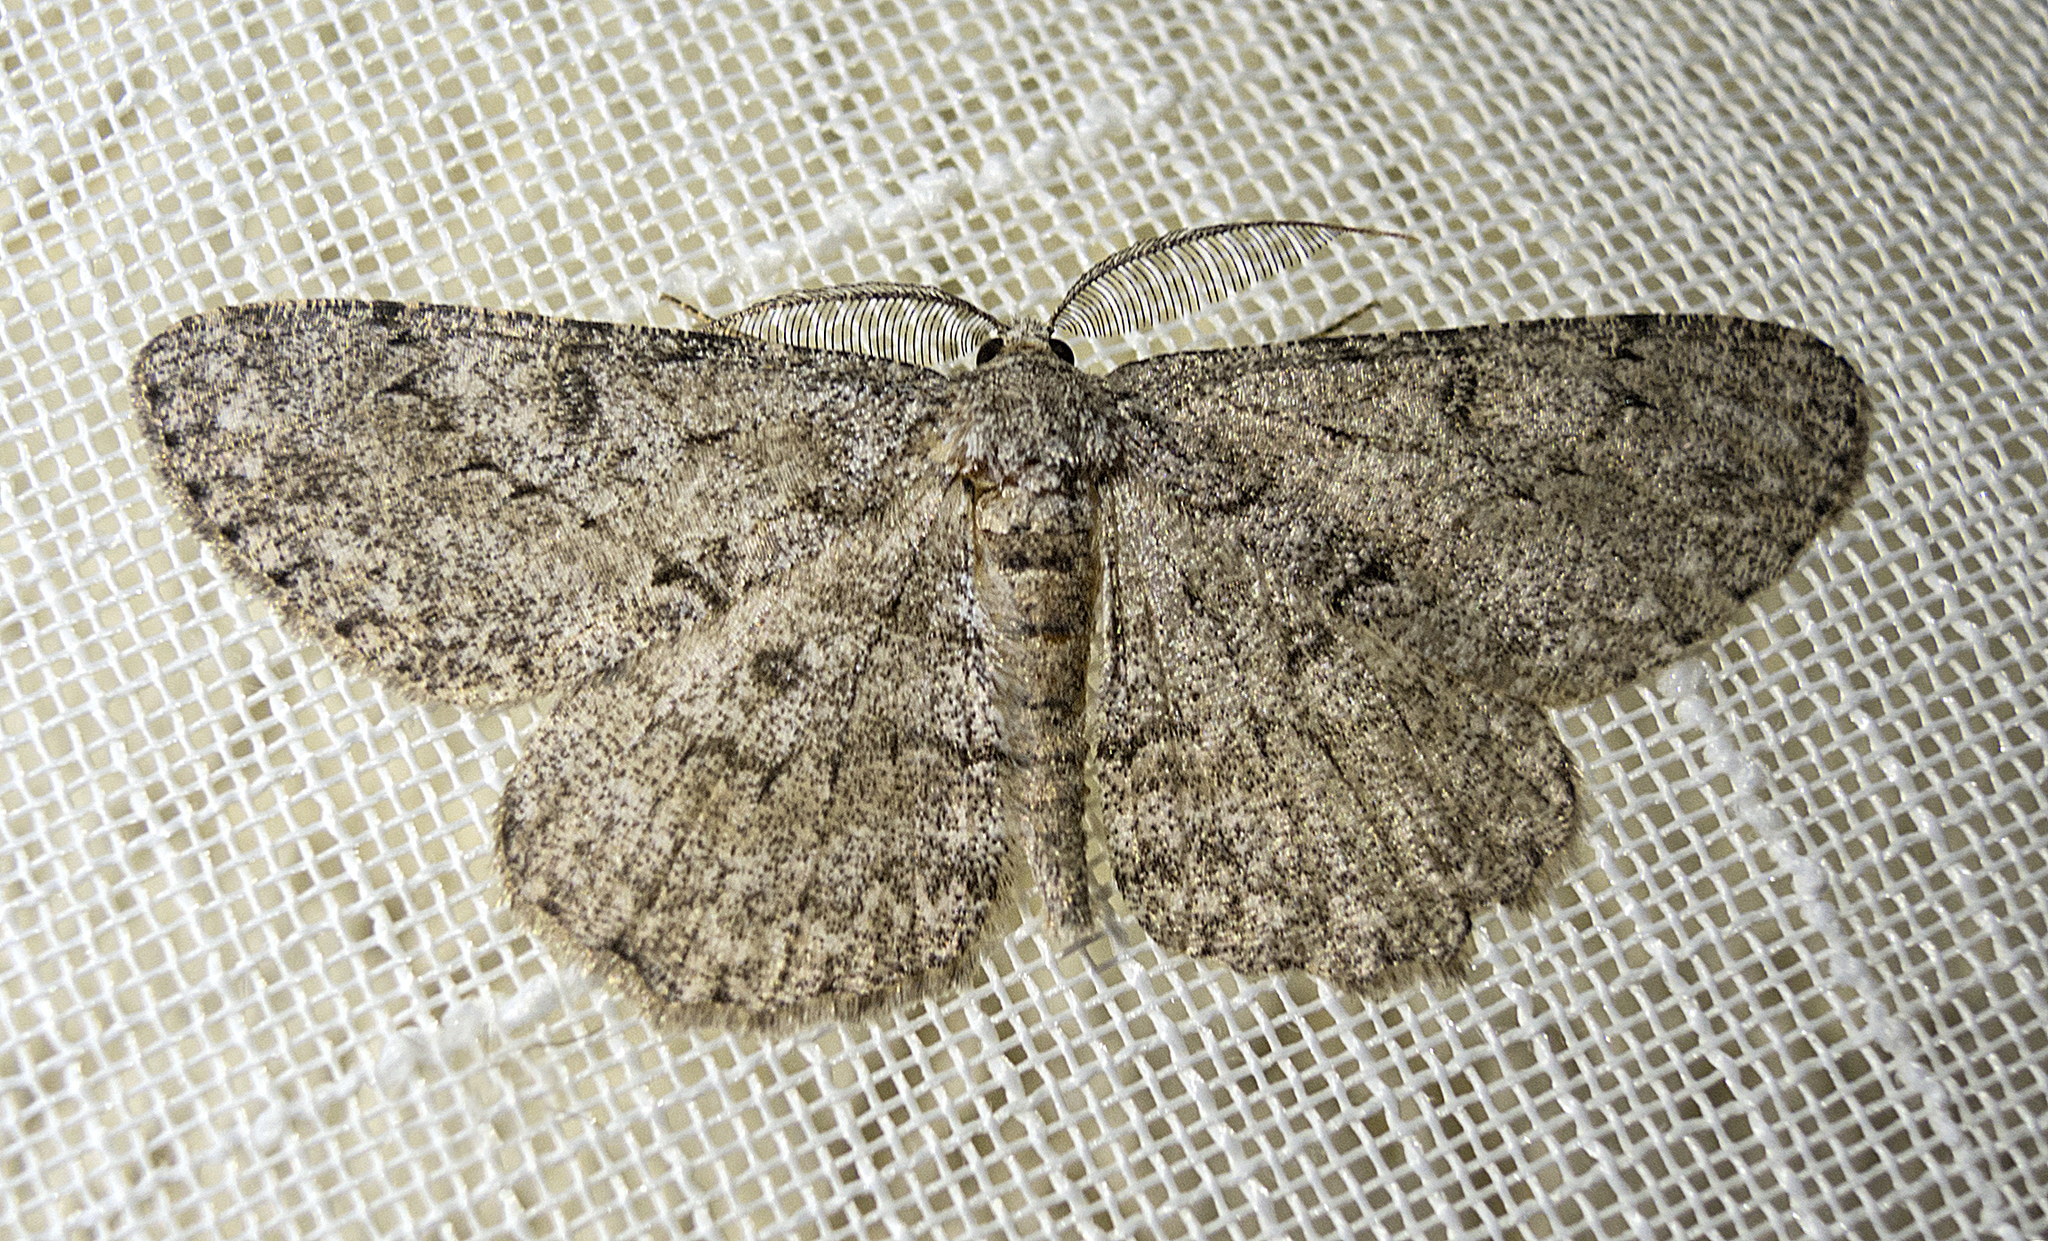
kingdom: Animalia
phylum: Arthropoda
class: Insecta
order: Lepidoptera
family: Geometridae
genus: Hypomecis
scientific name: Hypomecis punctinalis
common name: Pale oak beauty
